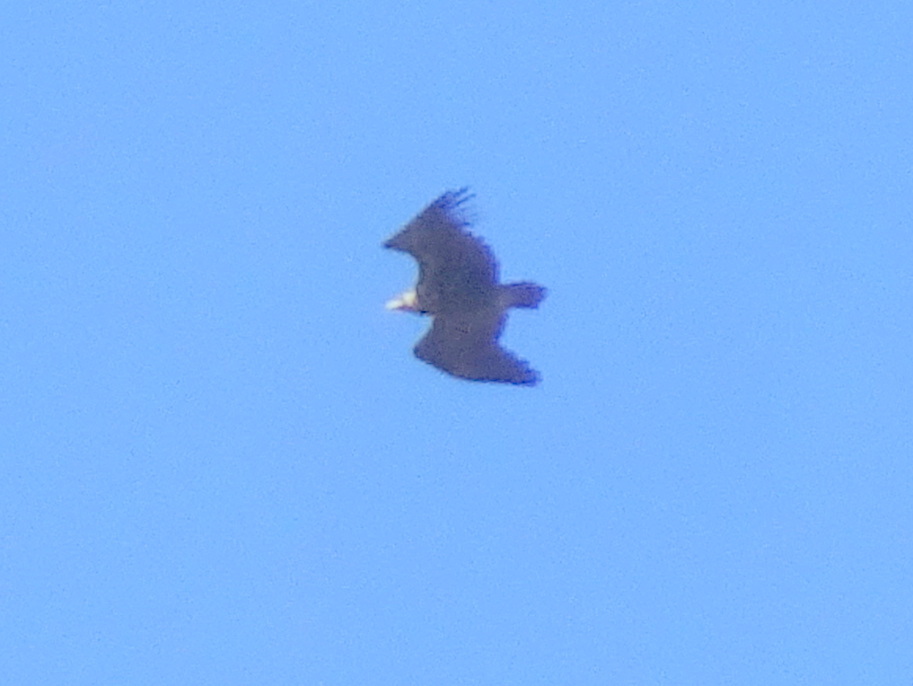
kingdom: Animalia
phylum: Chordata
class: Aves
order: Accipitriformes
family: Accipitridae
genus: Aegypius
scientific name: Aegypius monachus
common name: Cinereous vulture
